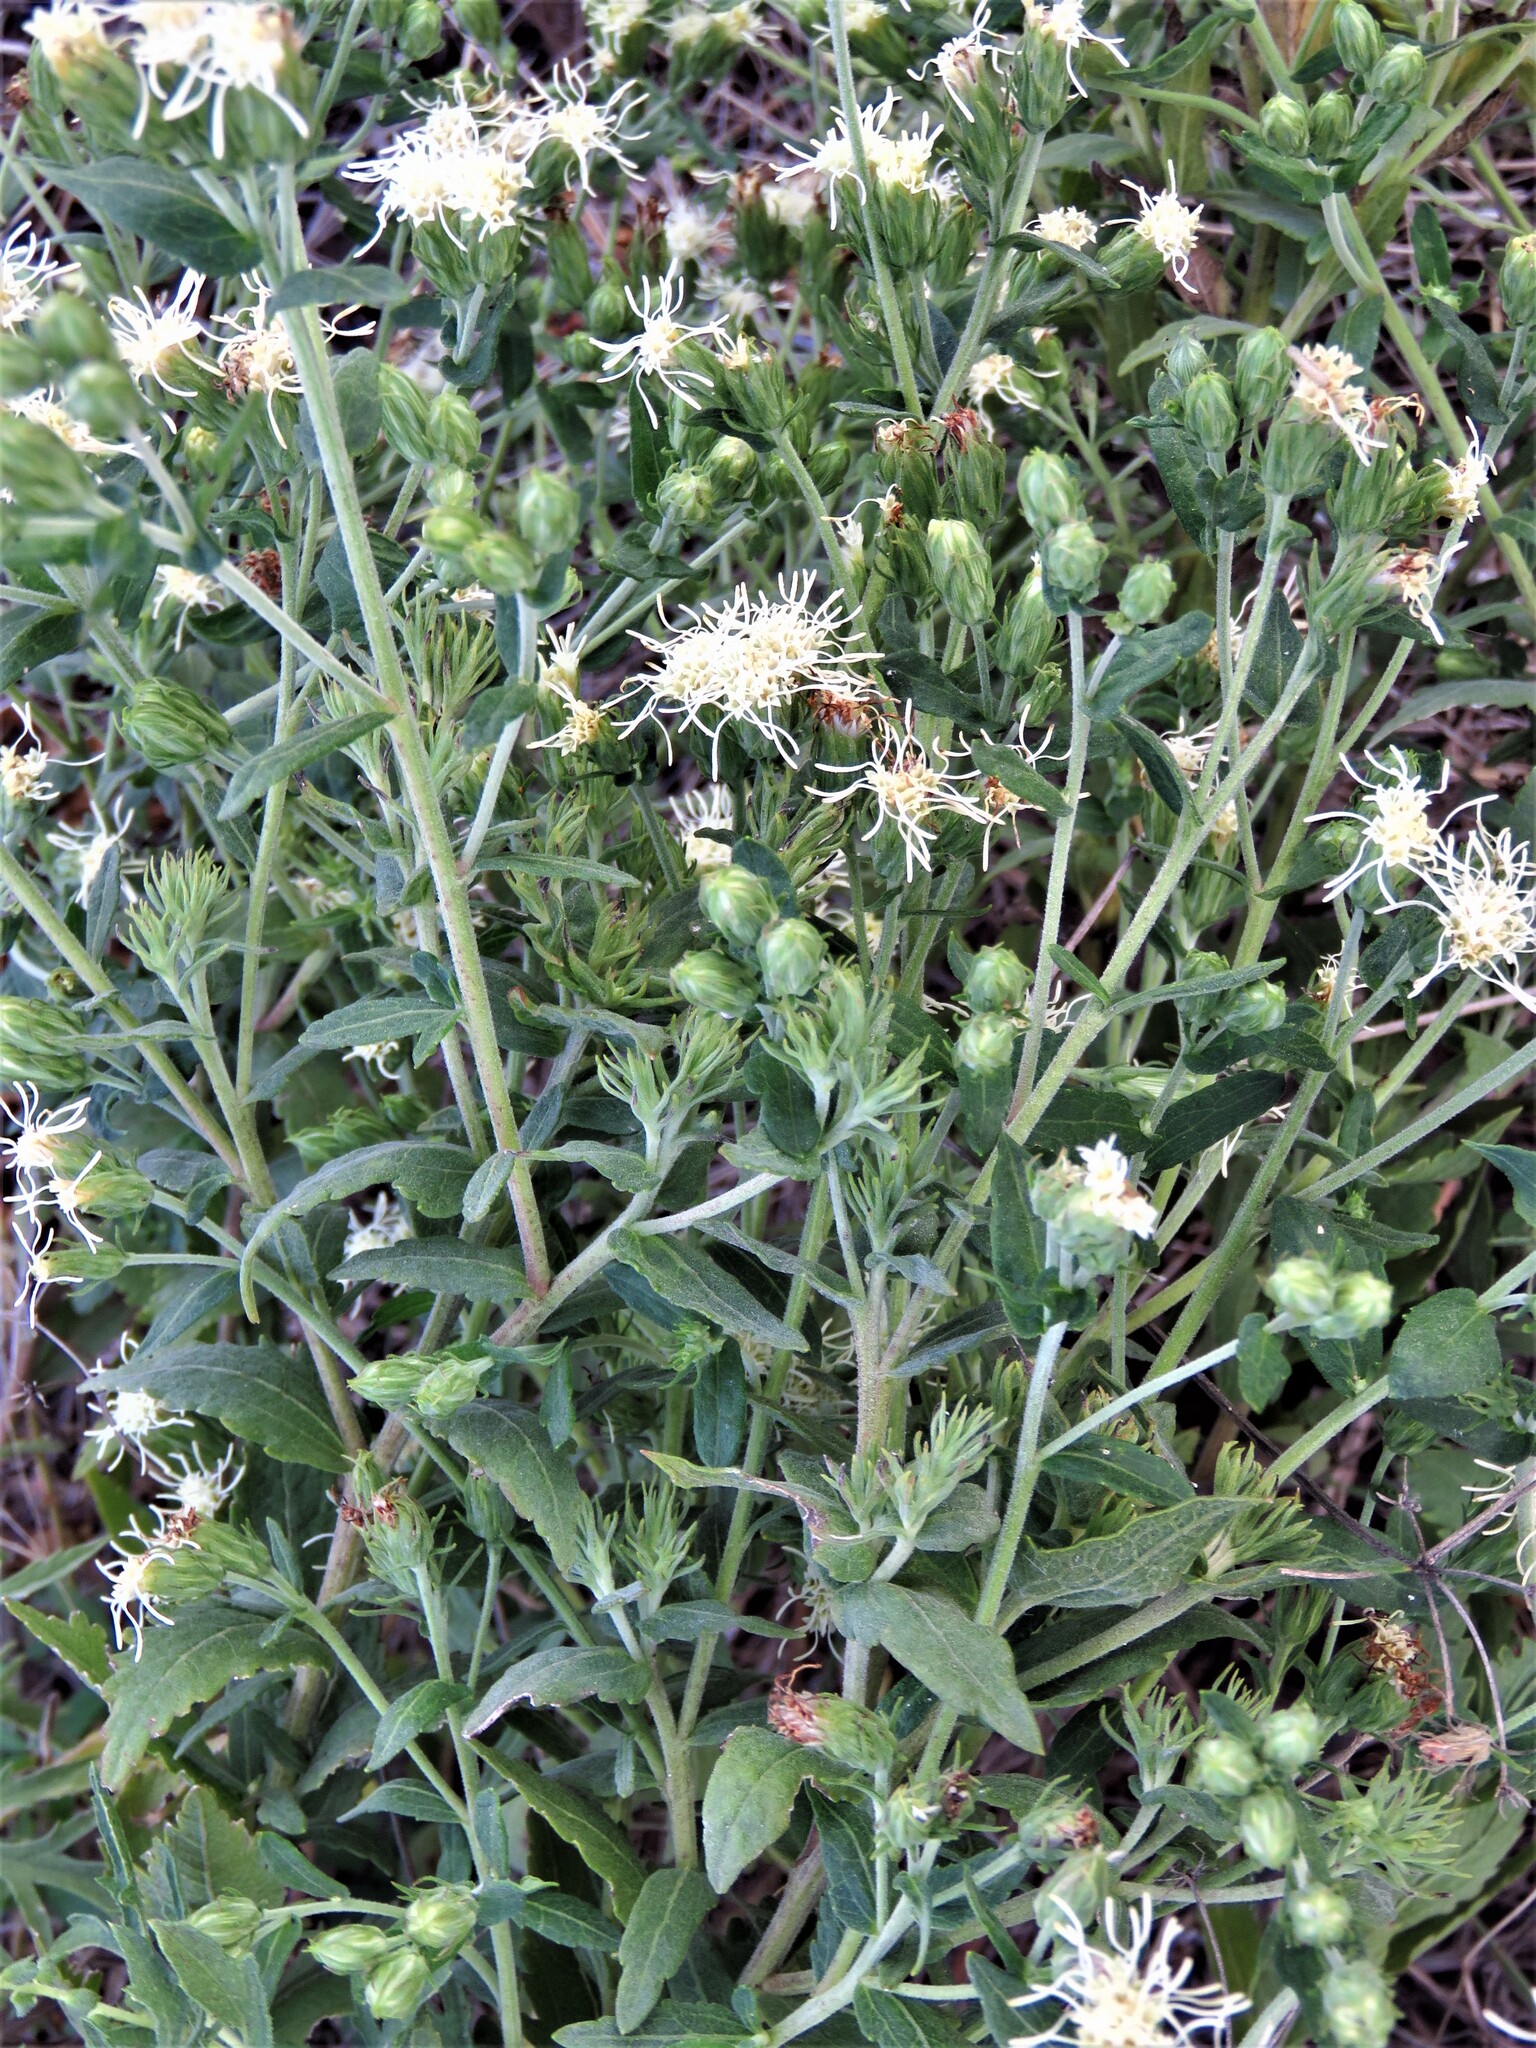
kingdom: Plantae
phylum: Tracheophyta
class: Magnoliopsida
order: Asterales
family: Asteraceae
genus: Brickellia
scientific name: Brickellia eupatorioides
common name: False boneset
